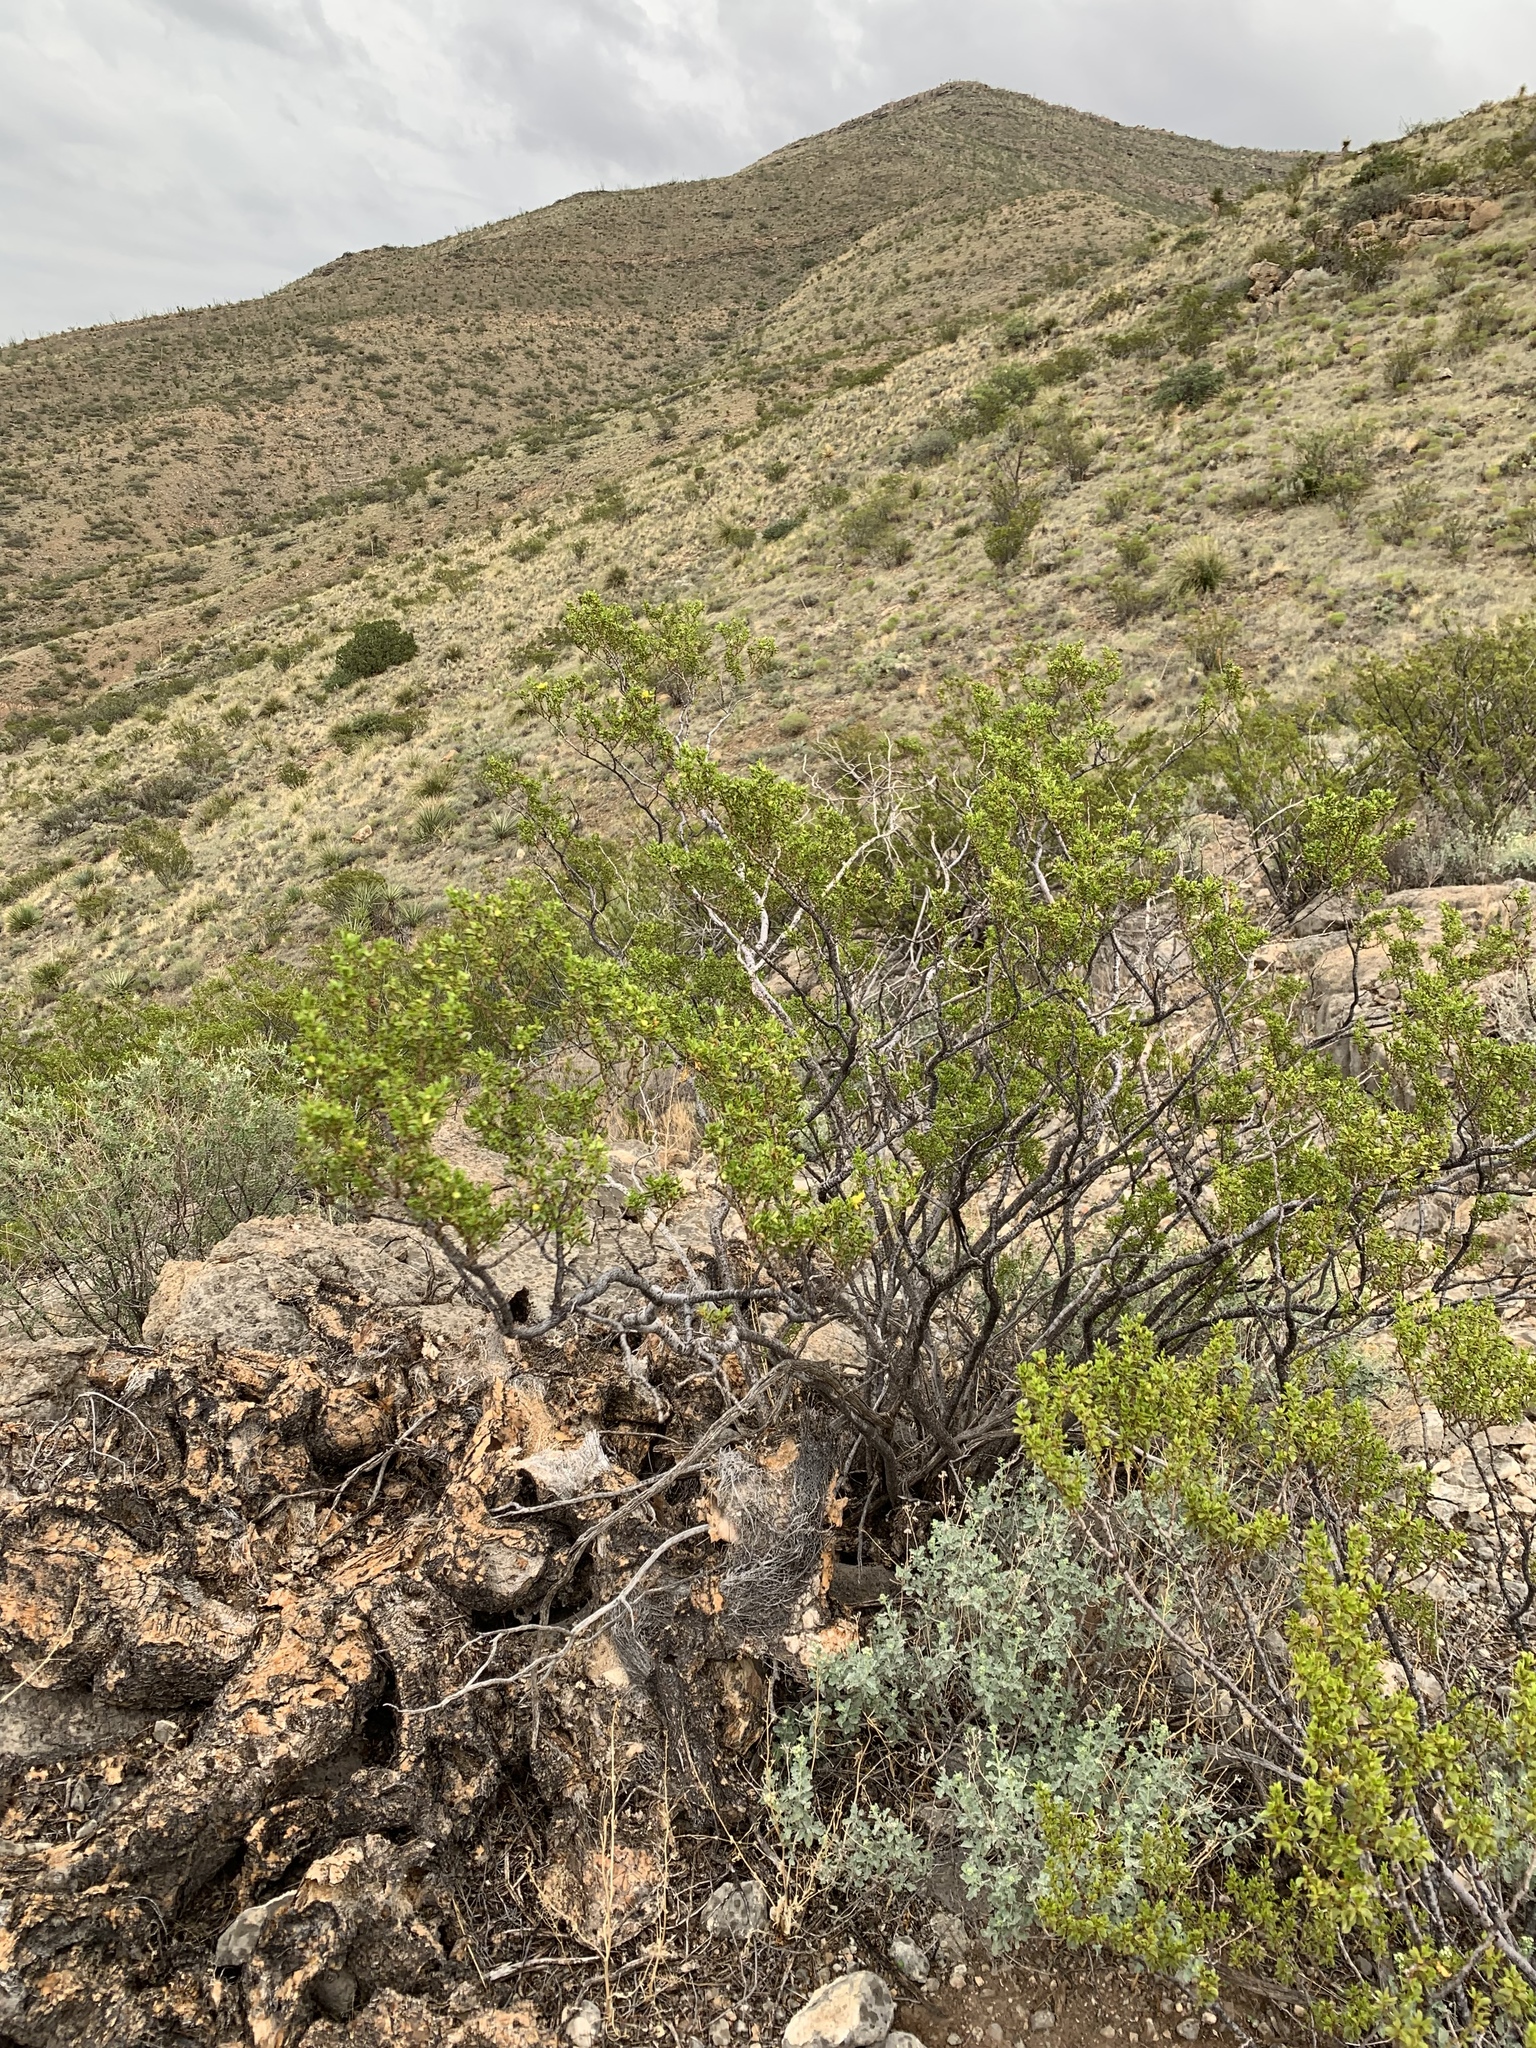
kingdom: Plantae
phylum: Tracheophyta
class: Magnoliopsida
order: Zygophyllales
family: Zygophyllaceae
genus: Larrea
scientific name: Larrea tridentata
